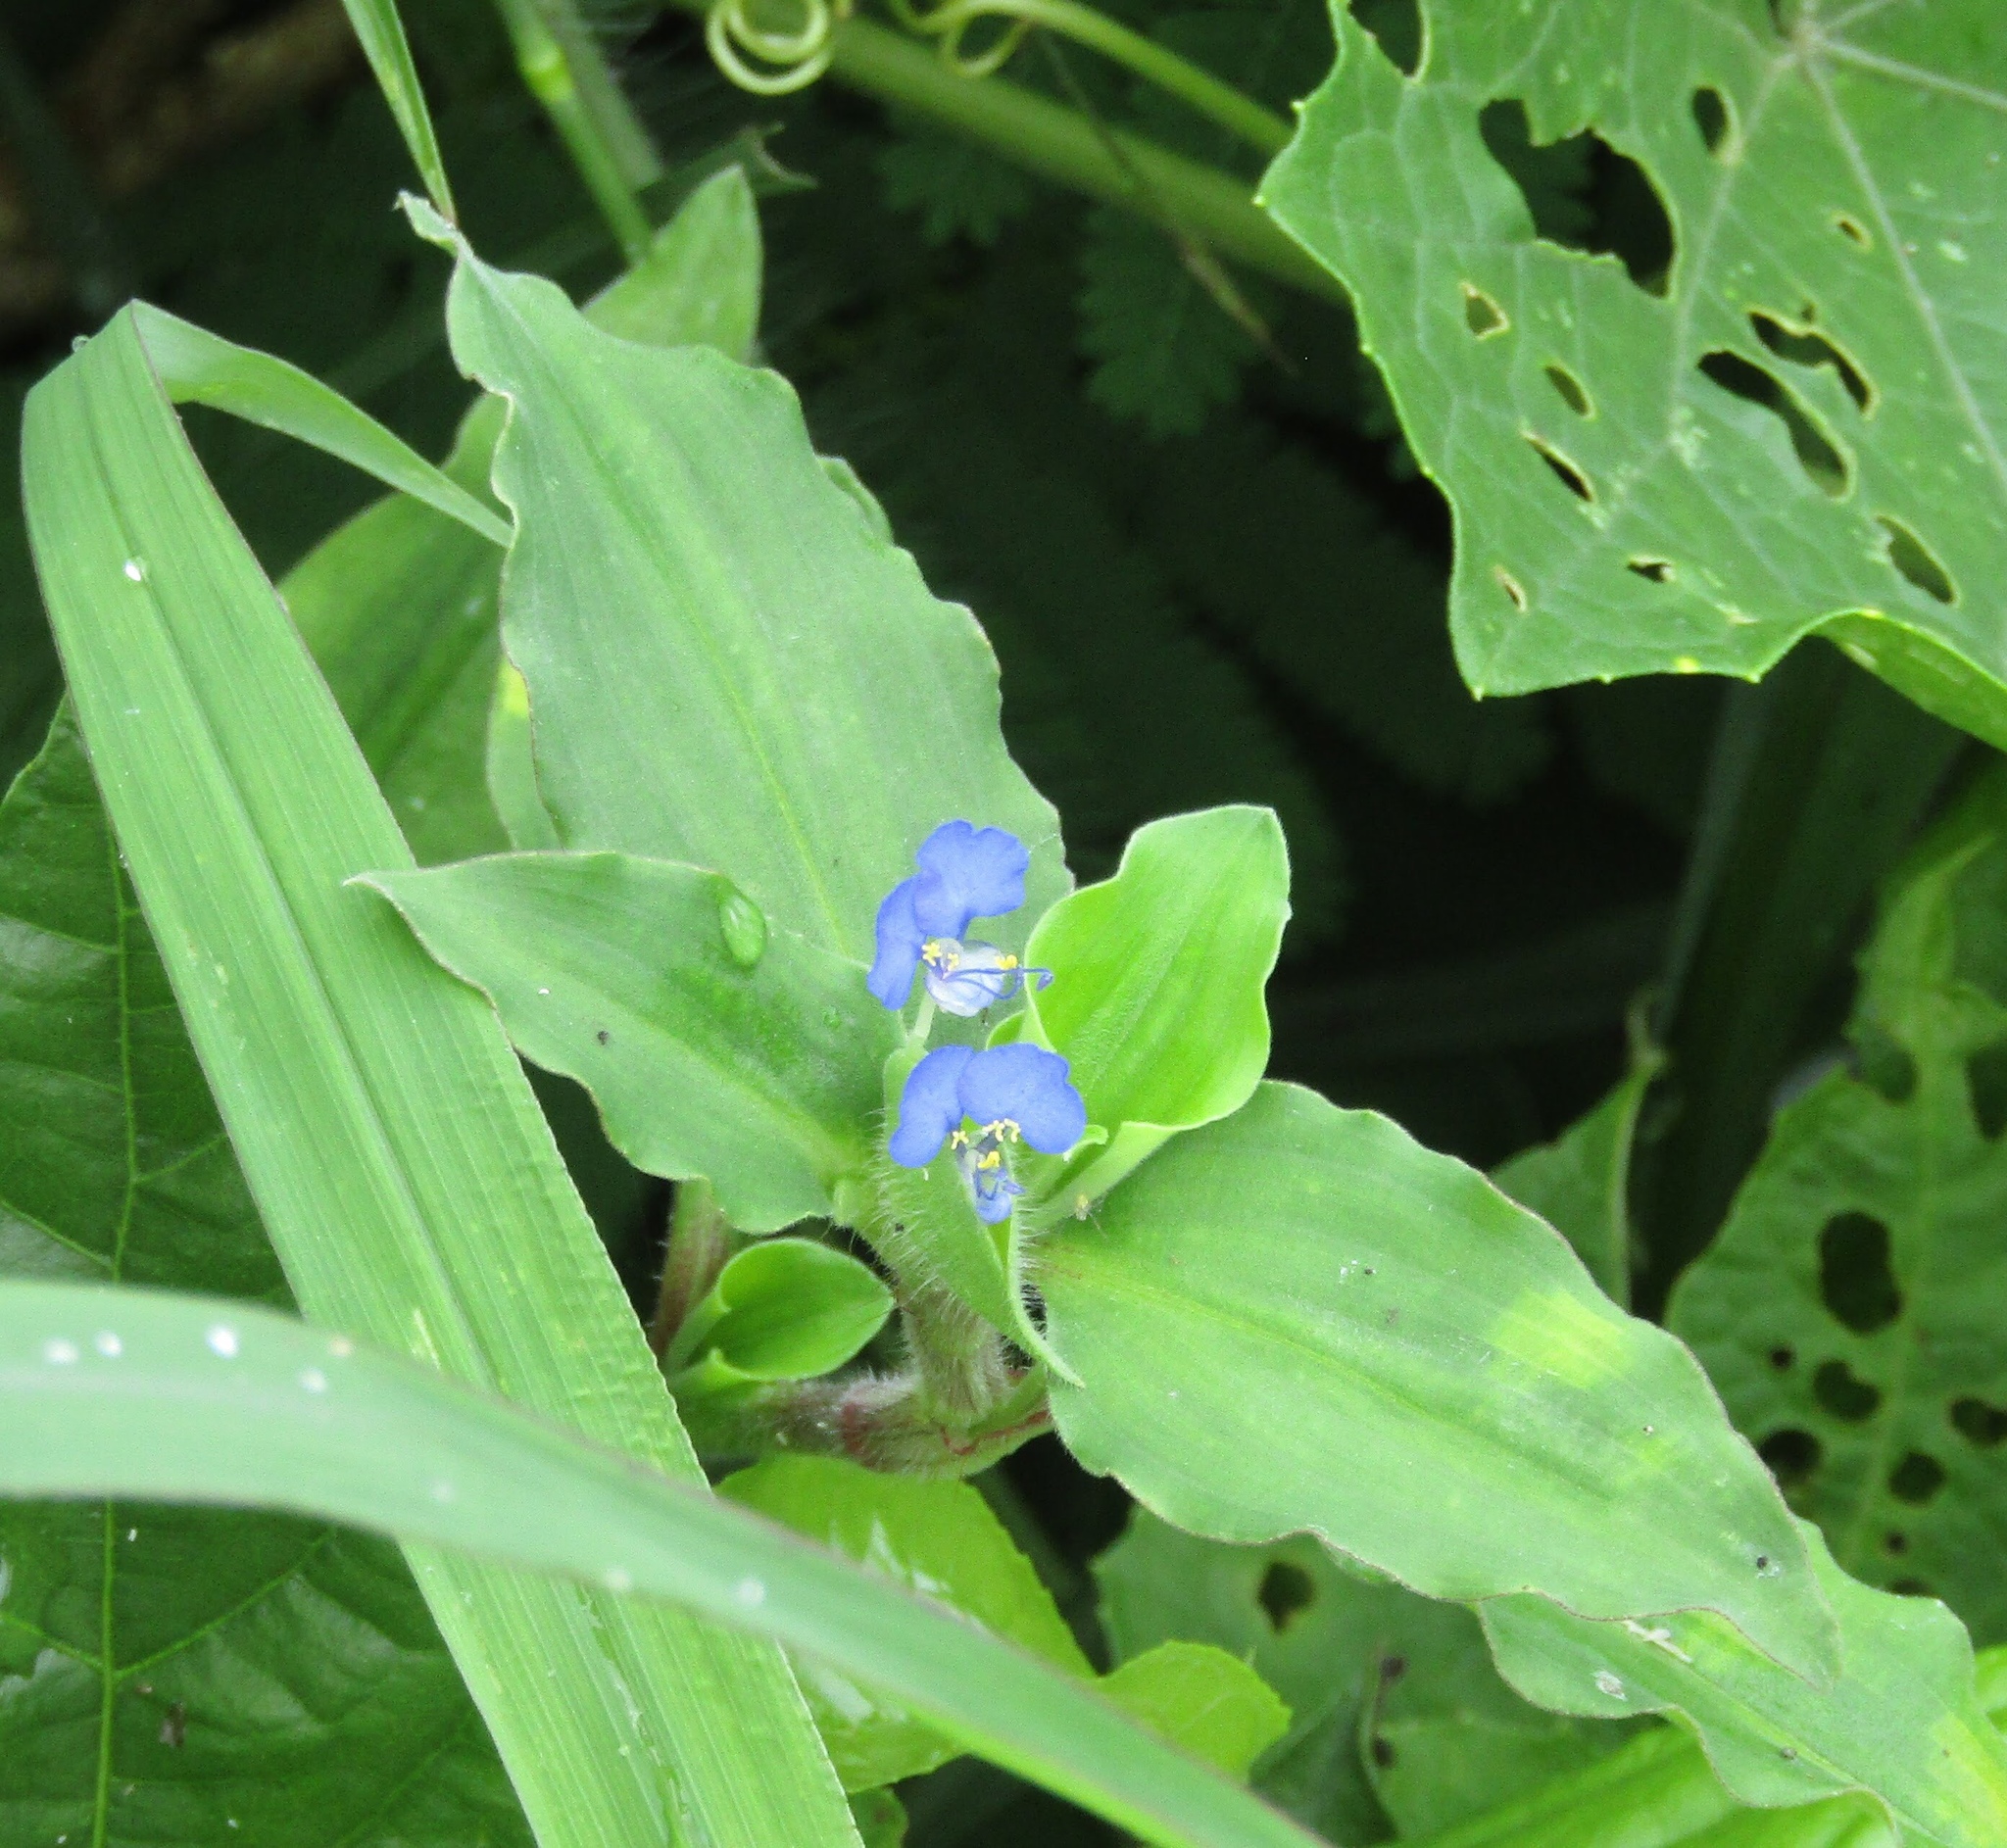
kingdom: Plantae
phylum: Tracheophyta
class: Liliopsida
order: Commelinales
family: Commelinaceae
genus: Commelina
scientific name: Commelina benghalensis
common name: Jio
